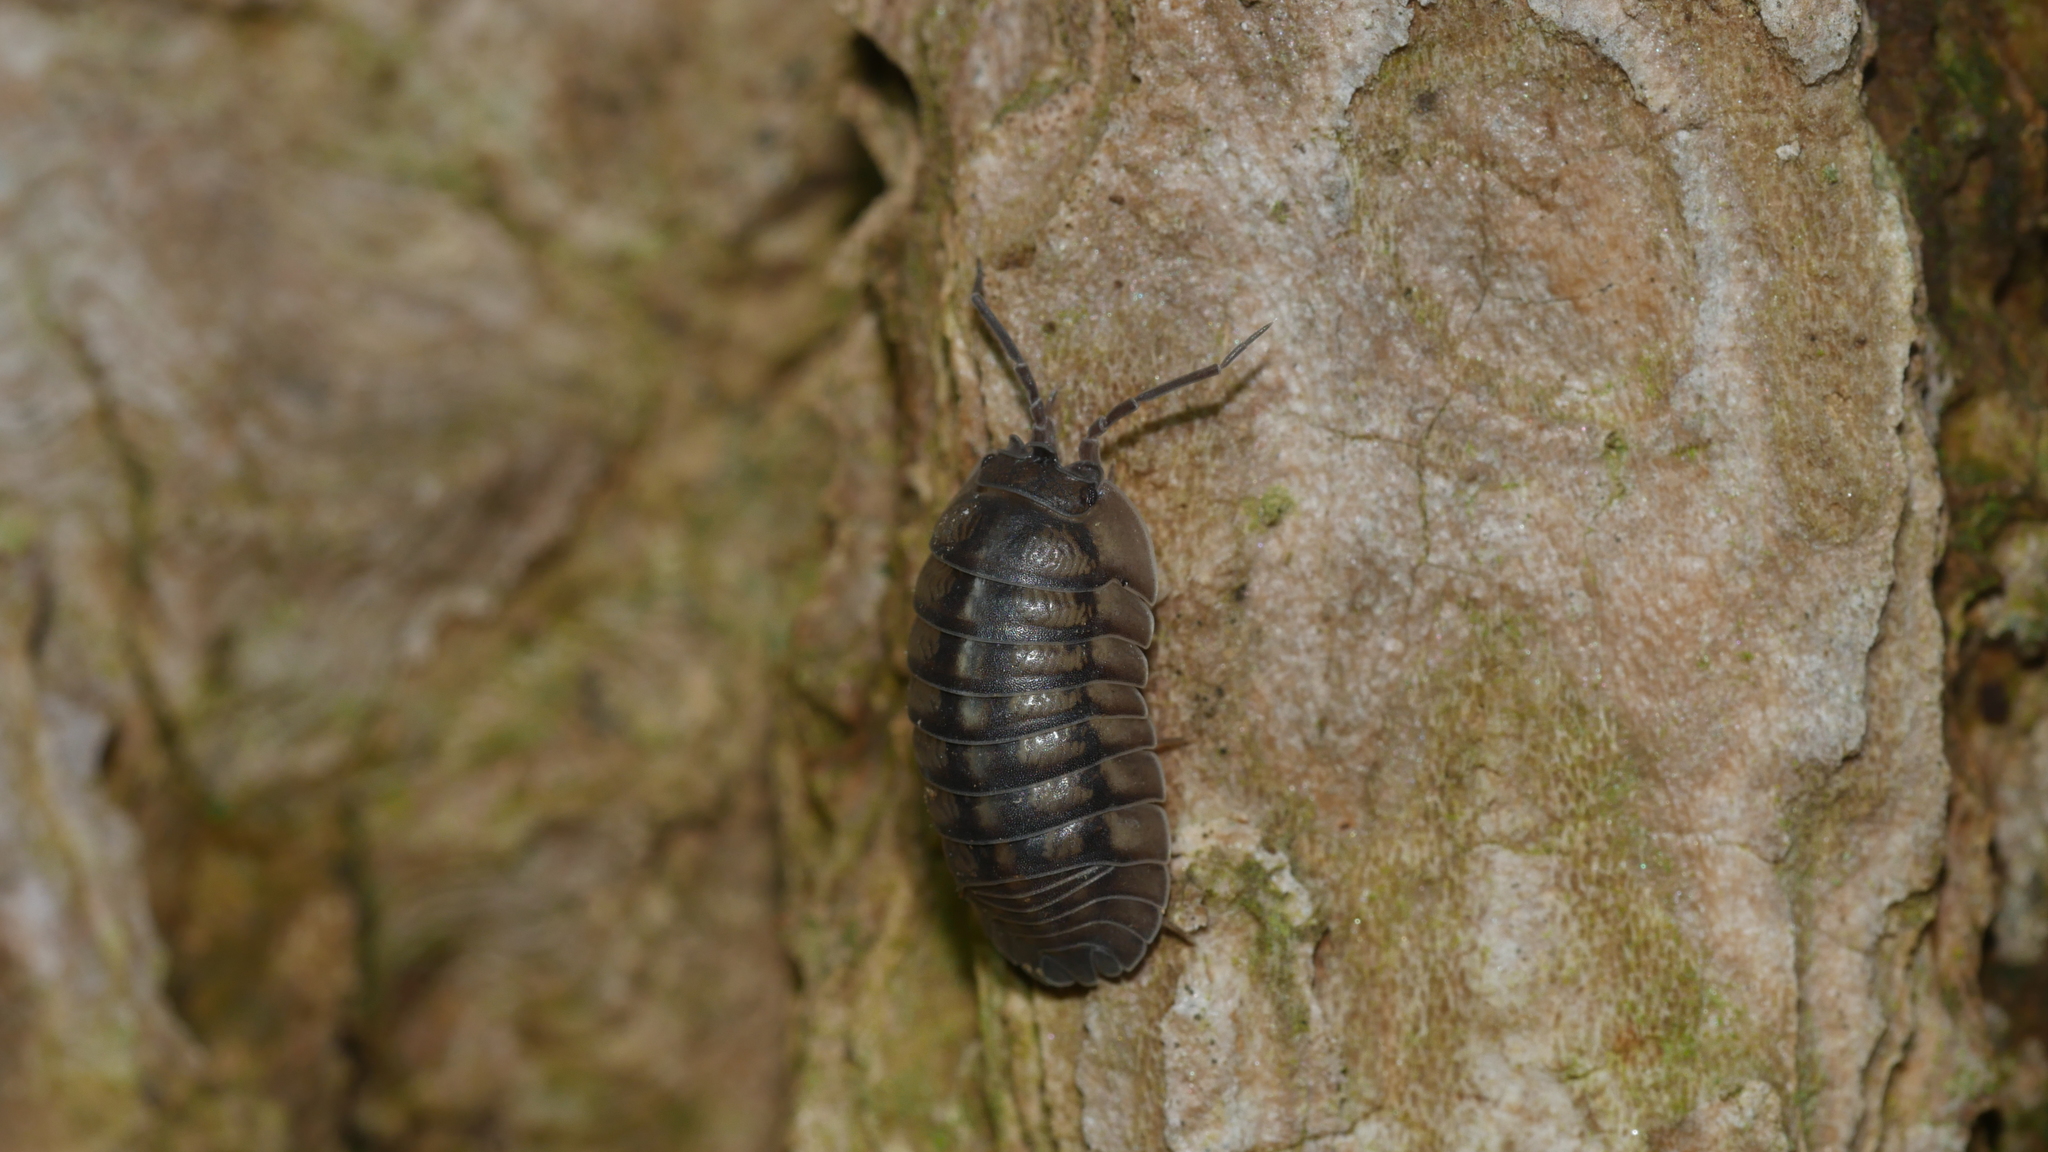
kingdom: Animalia
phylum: Arthropoda
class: Malacostraca
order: Isopoda
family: Armadillidiidae
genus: Armadillidium
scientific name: Armadillidium nasatum
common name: Isopod
